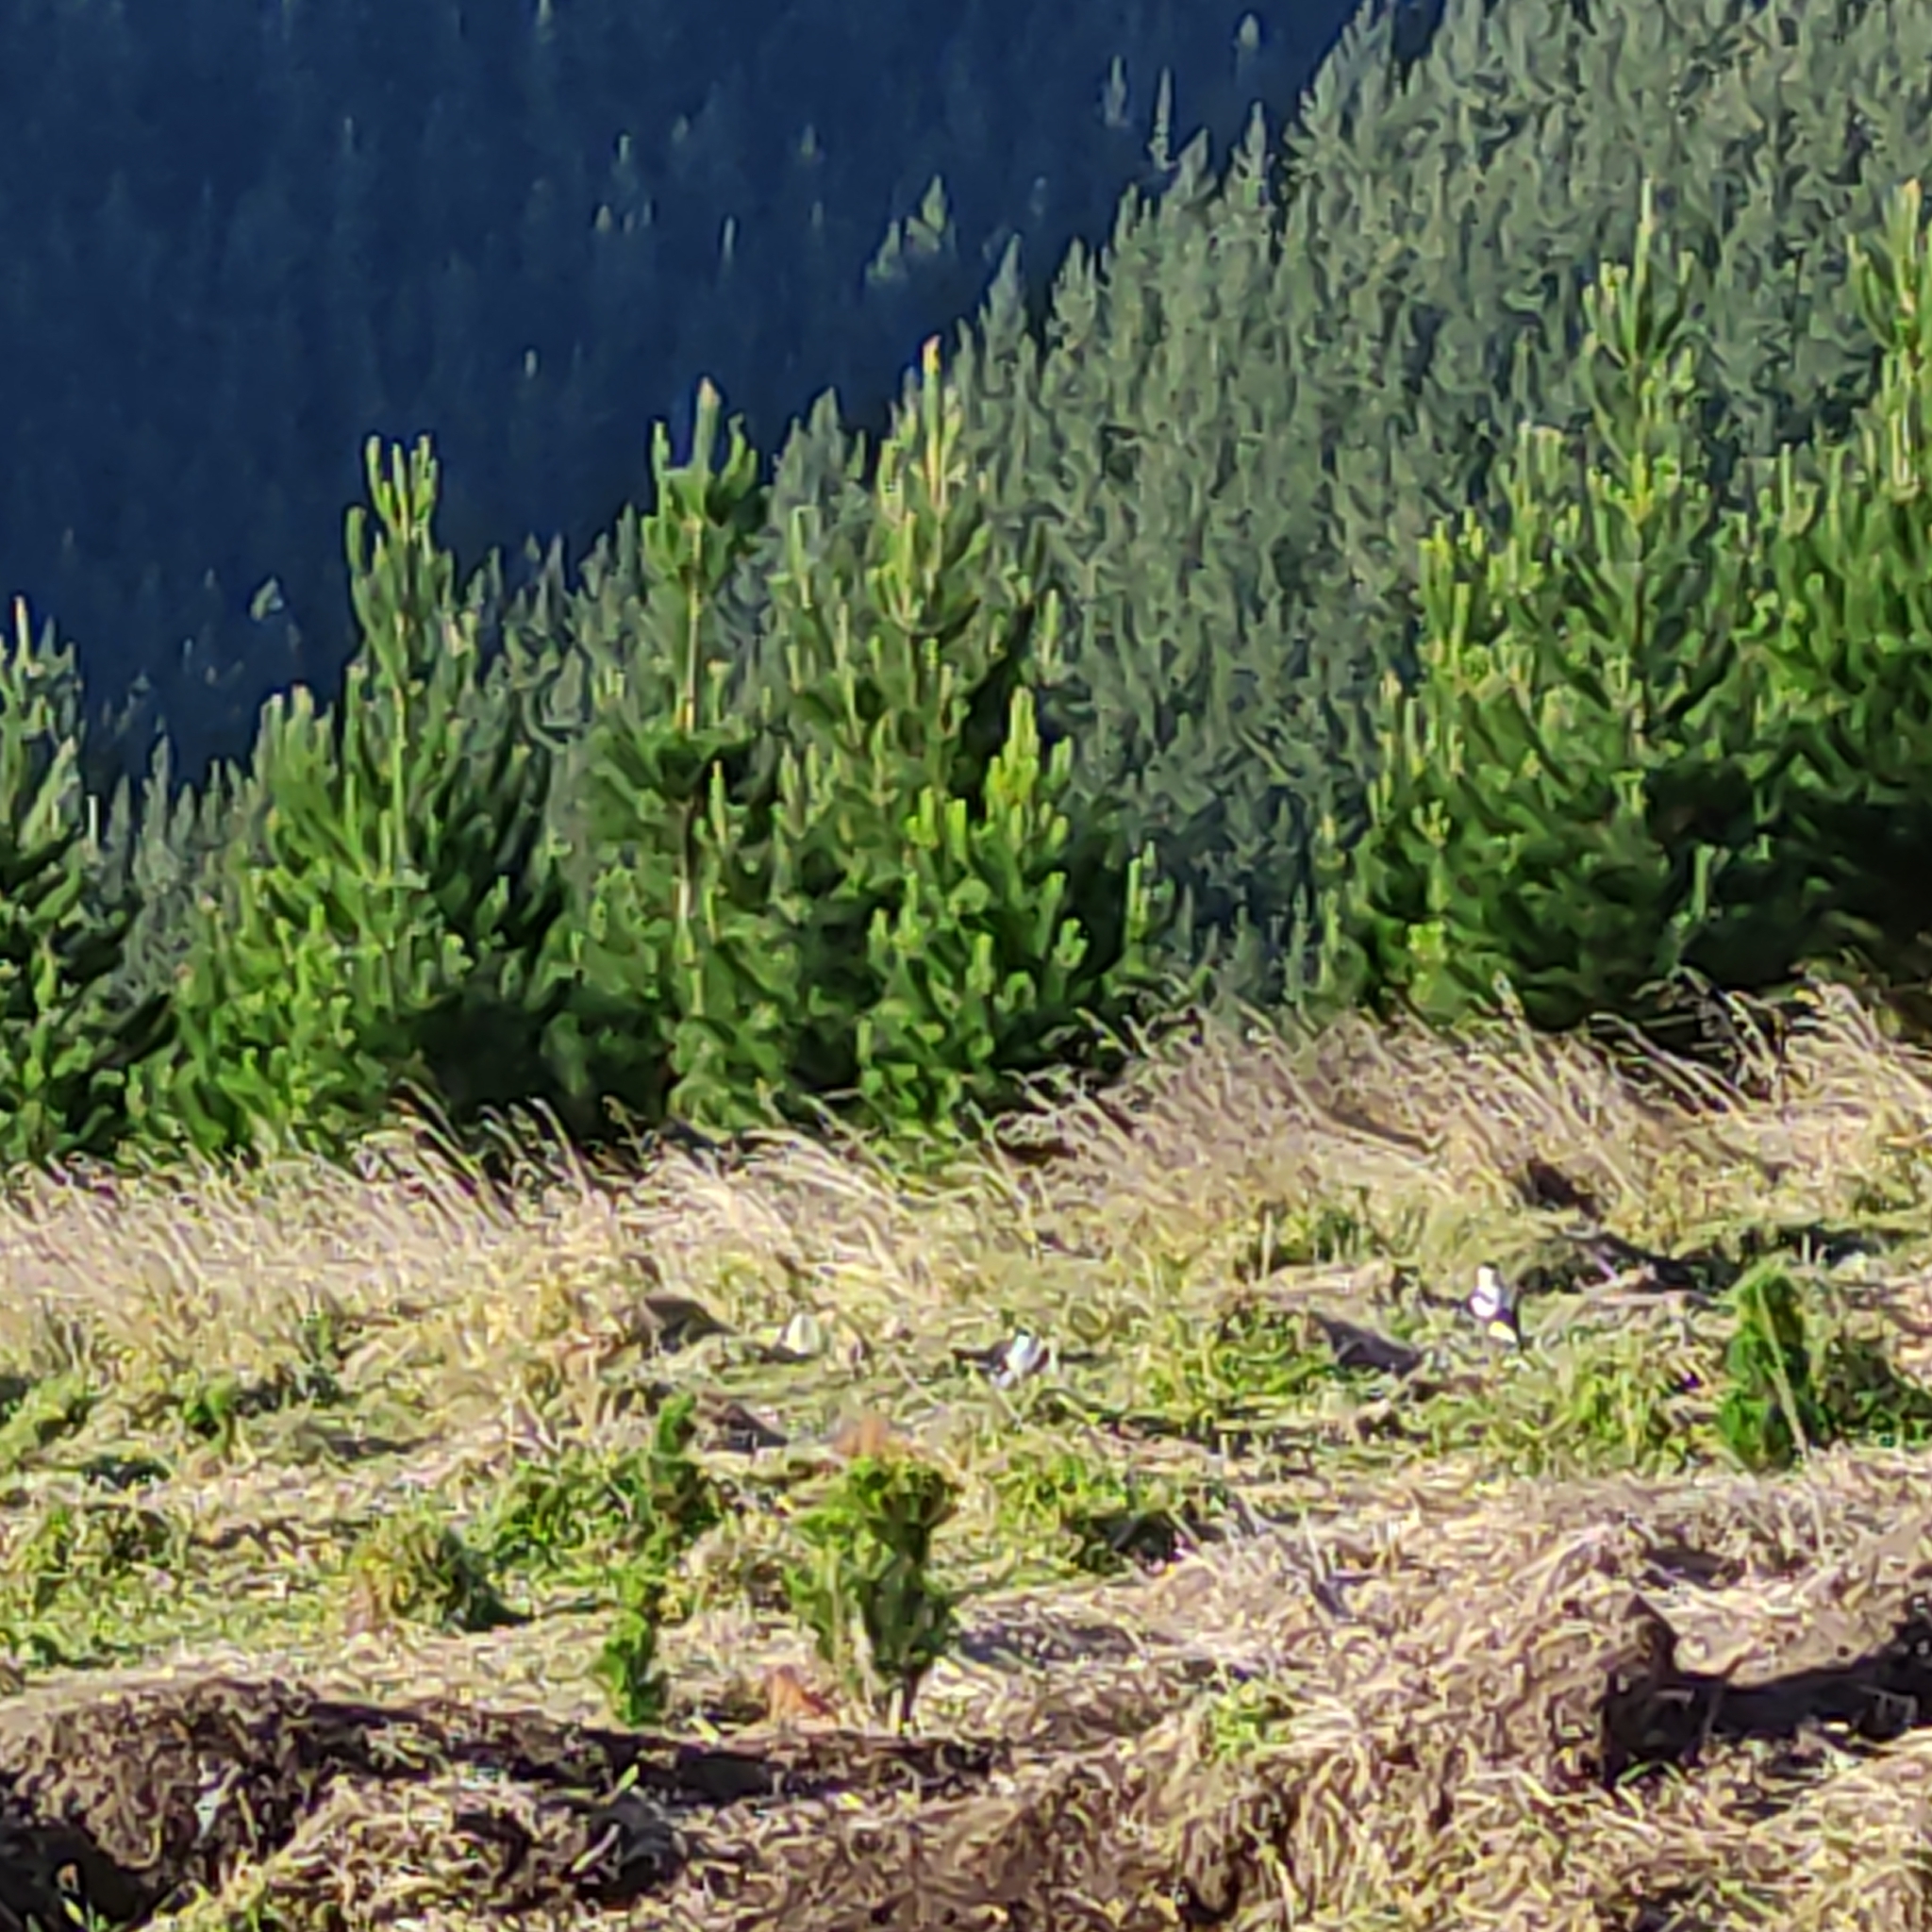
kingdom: Animalia
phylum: Chordata
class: Aves
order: Passeriformes
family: Cracticidae
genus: Gymnorhina
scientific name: Gymnorhina tibicen
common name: Australian magpie
